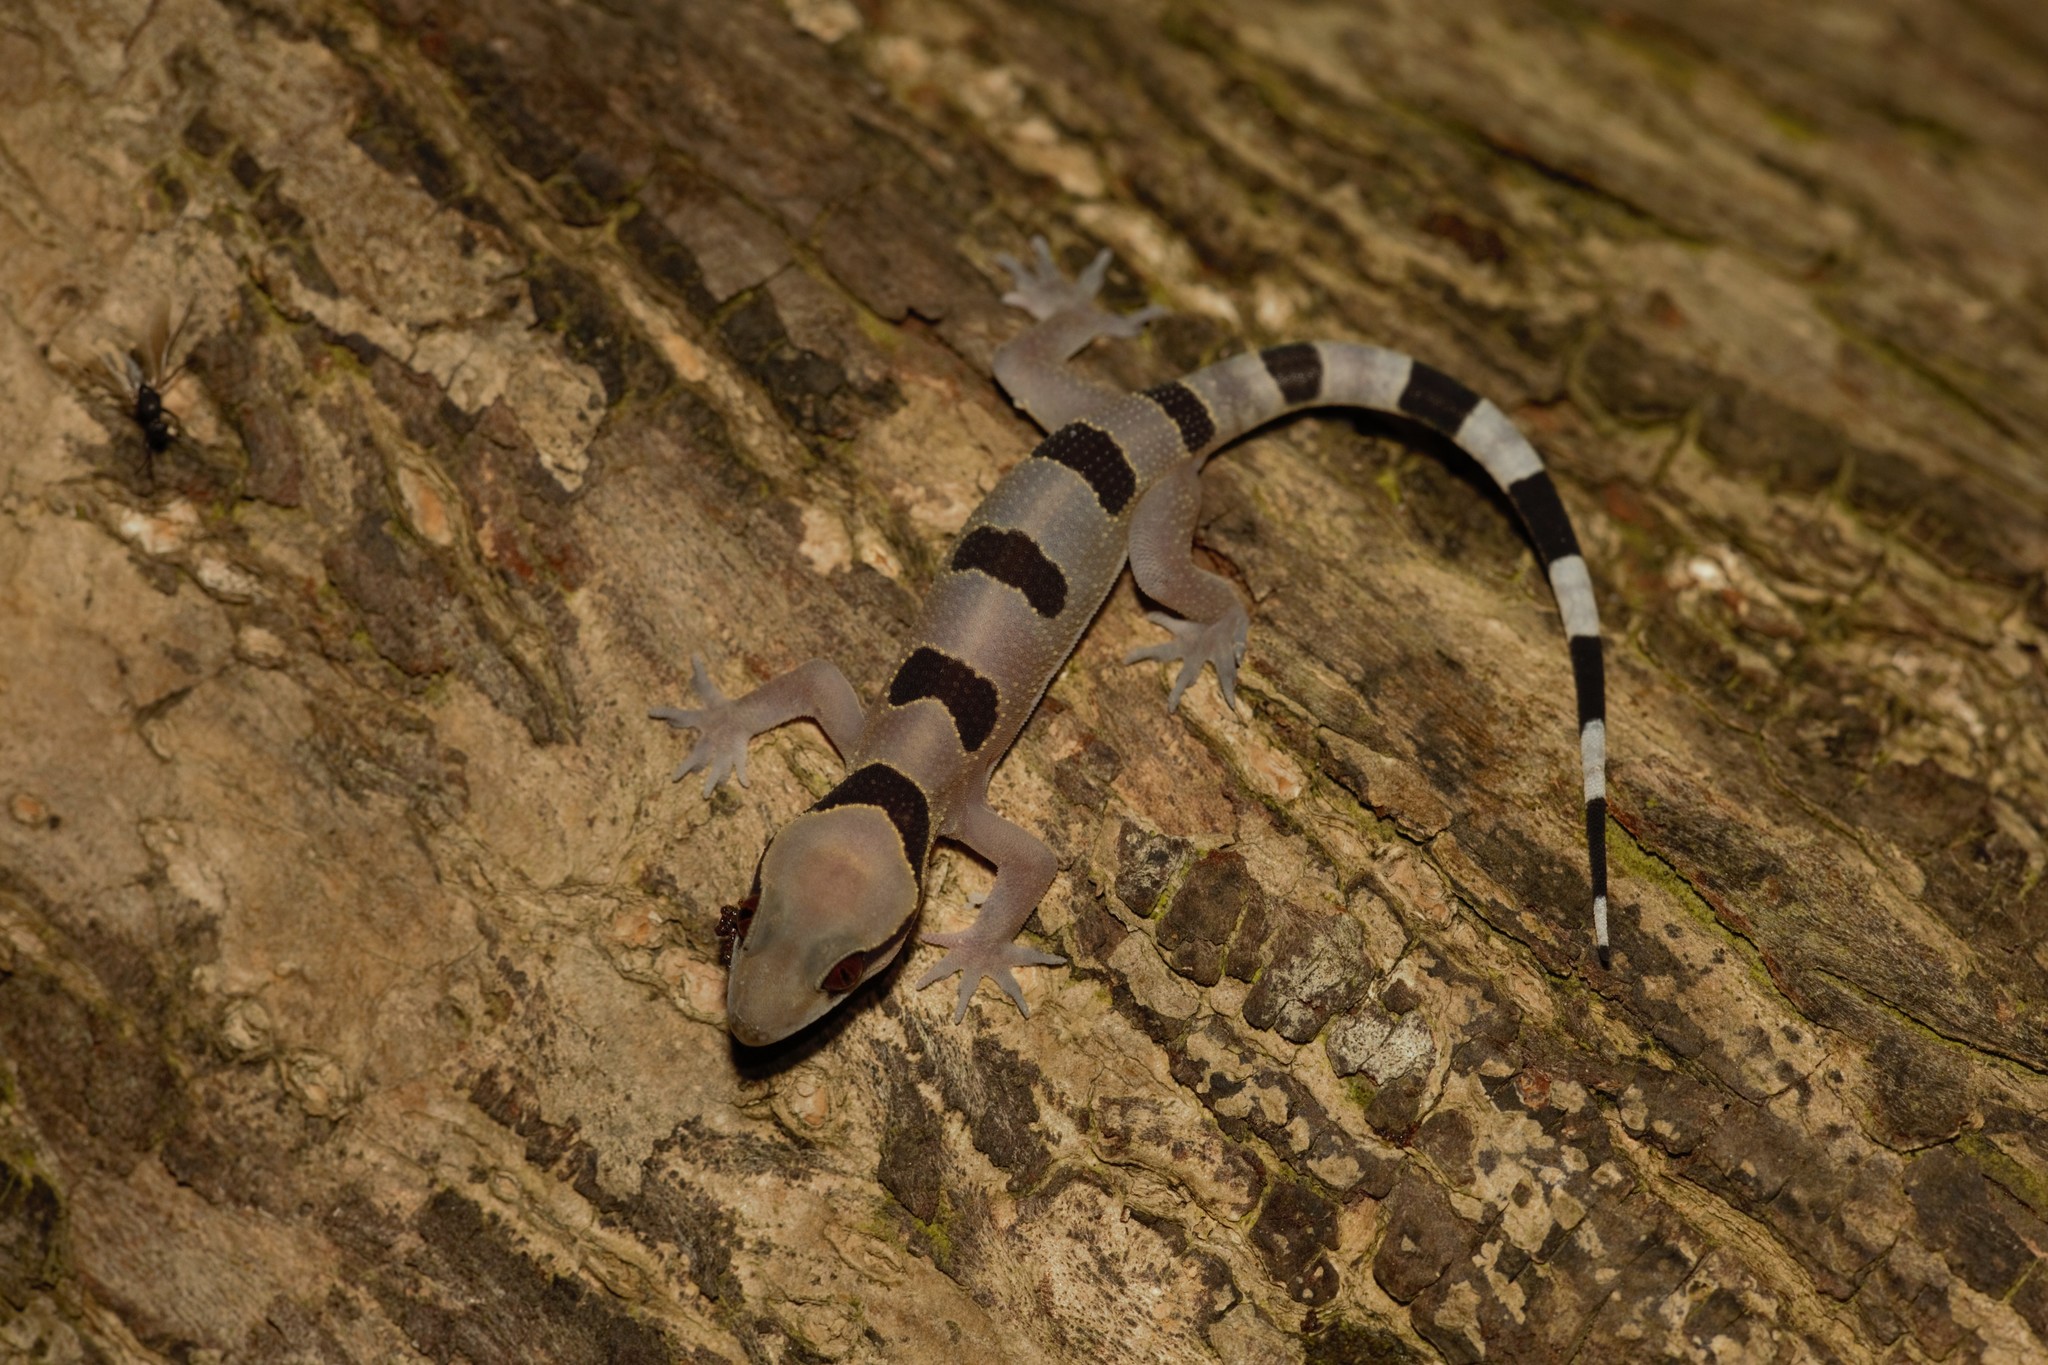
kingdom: Animalia
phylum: Chordata
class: Squamata
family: Gekkonidae
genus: Hemidactylus
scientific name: Hemidactylus eniangii
